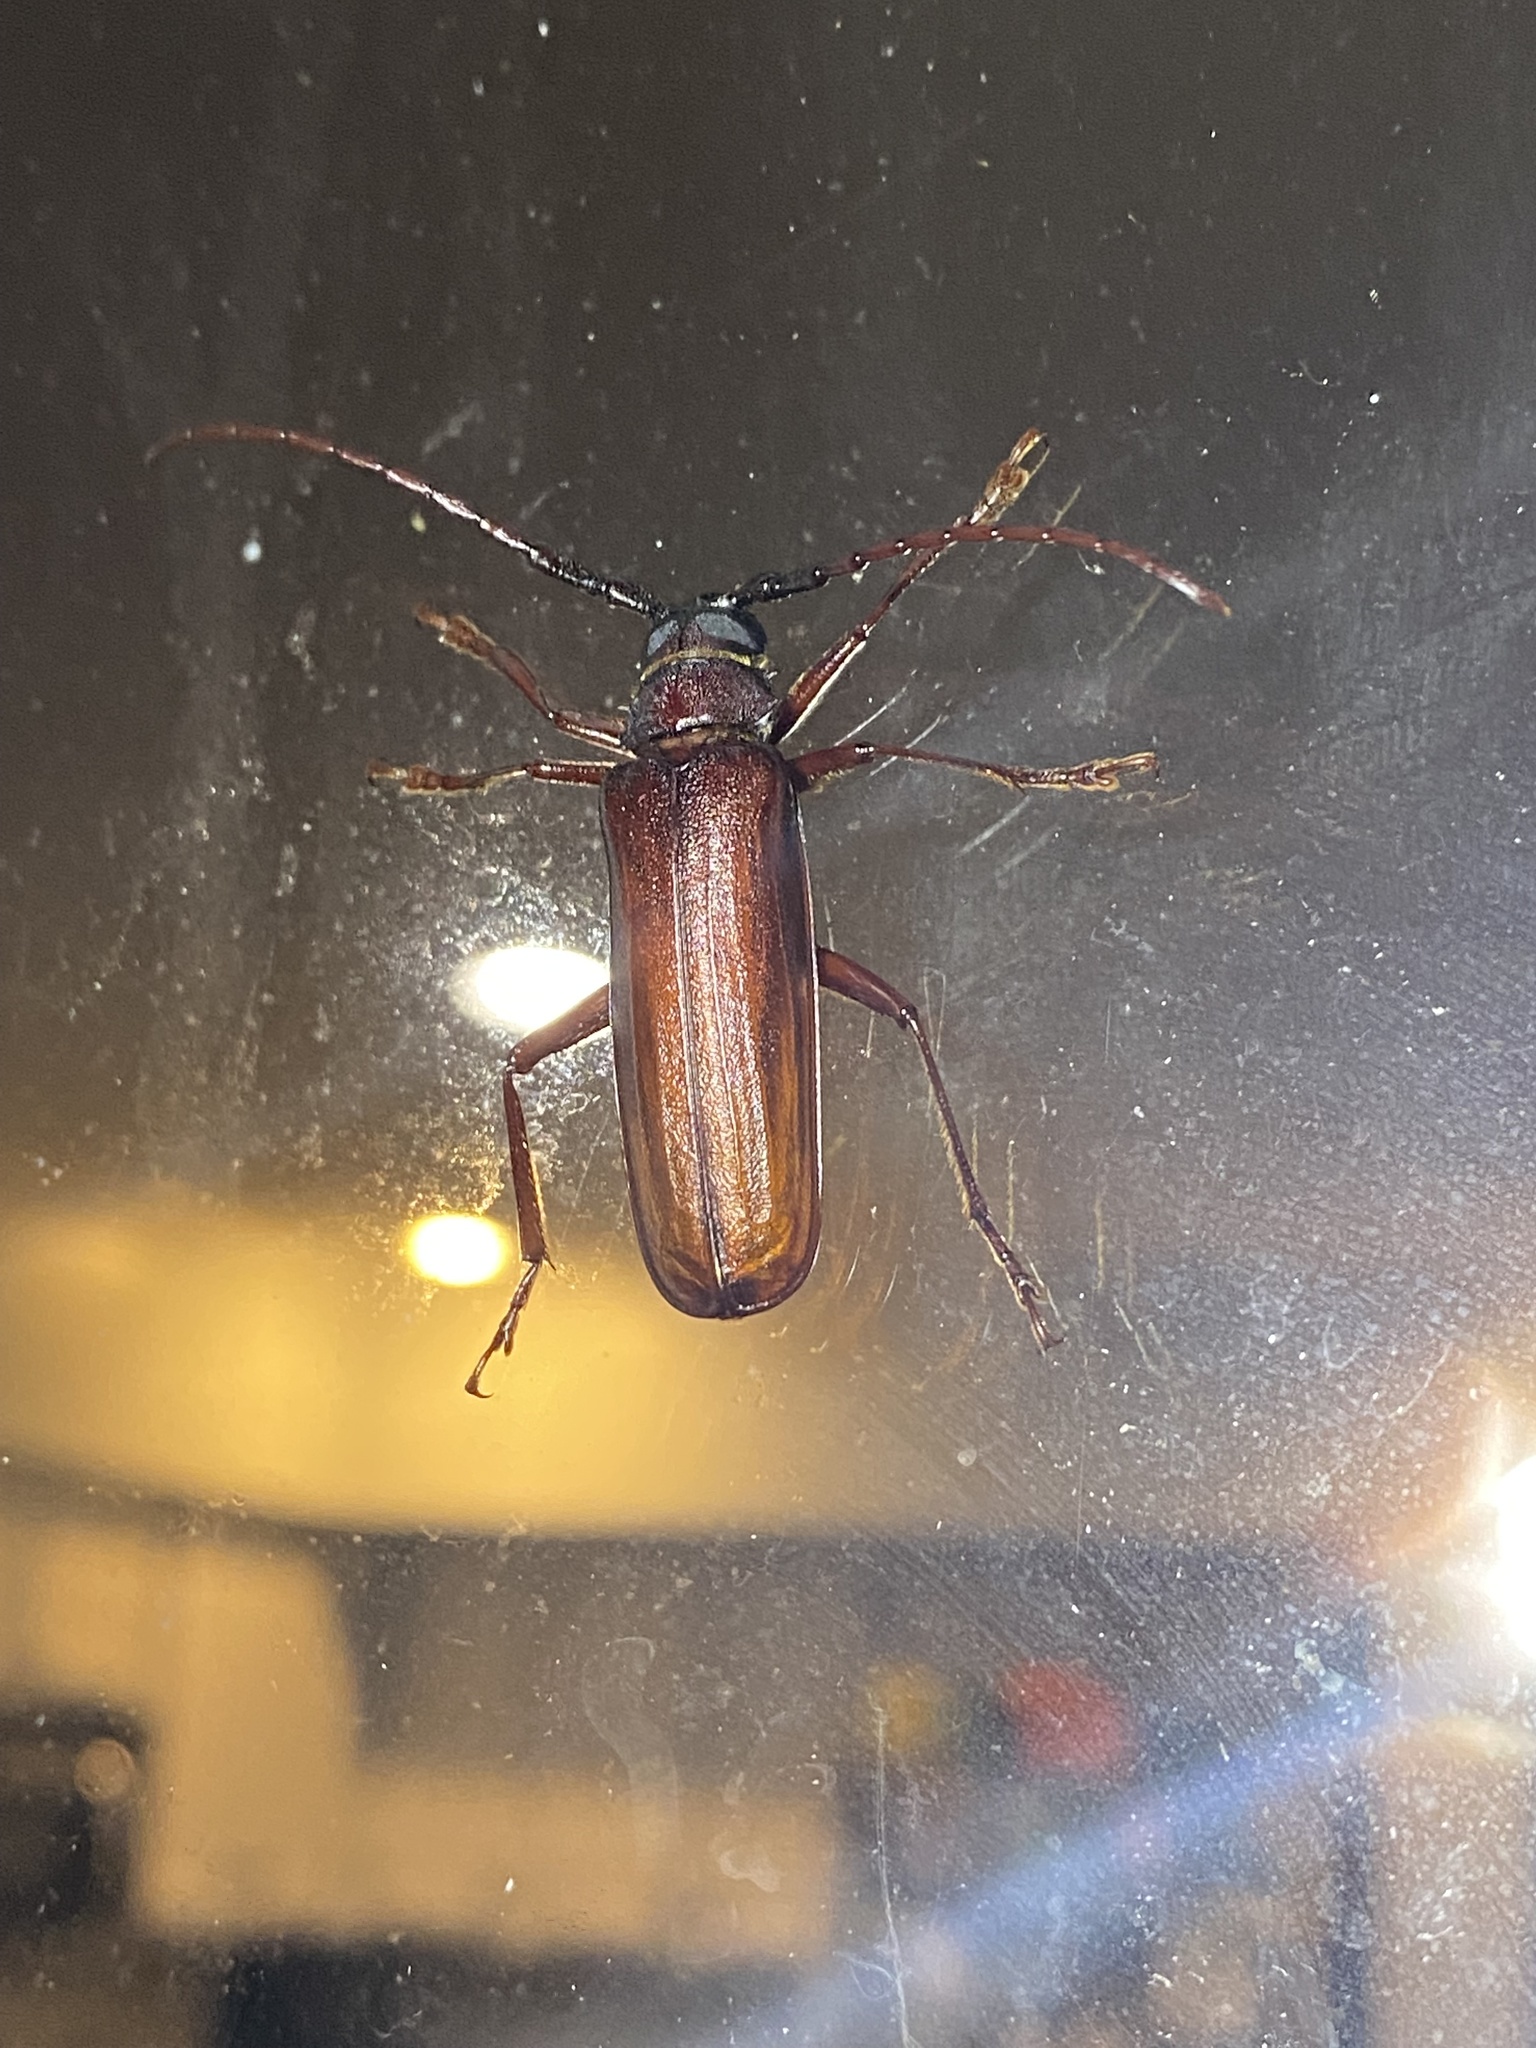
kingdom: Animalia
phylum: Arthropoda
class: Insecta
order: Coleoptera
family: Cerambycidae
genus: Orthosoma
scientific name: Orthosoma brunneum
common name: Brown prionid beetle
